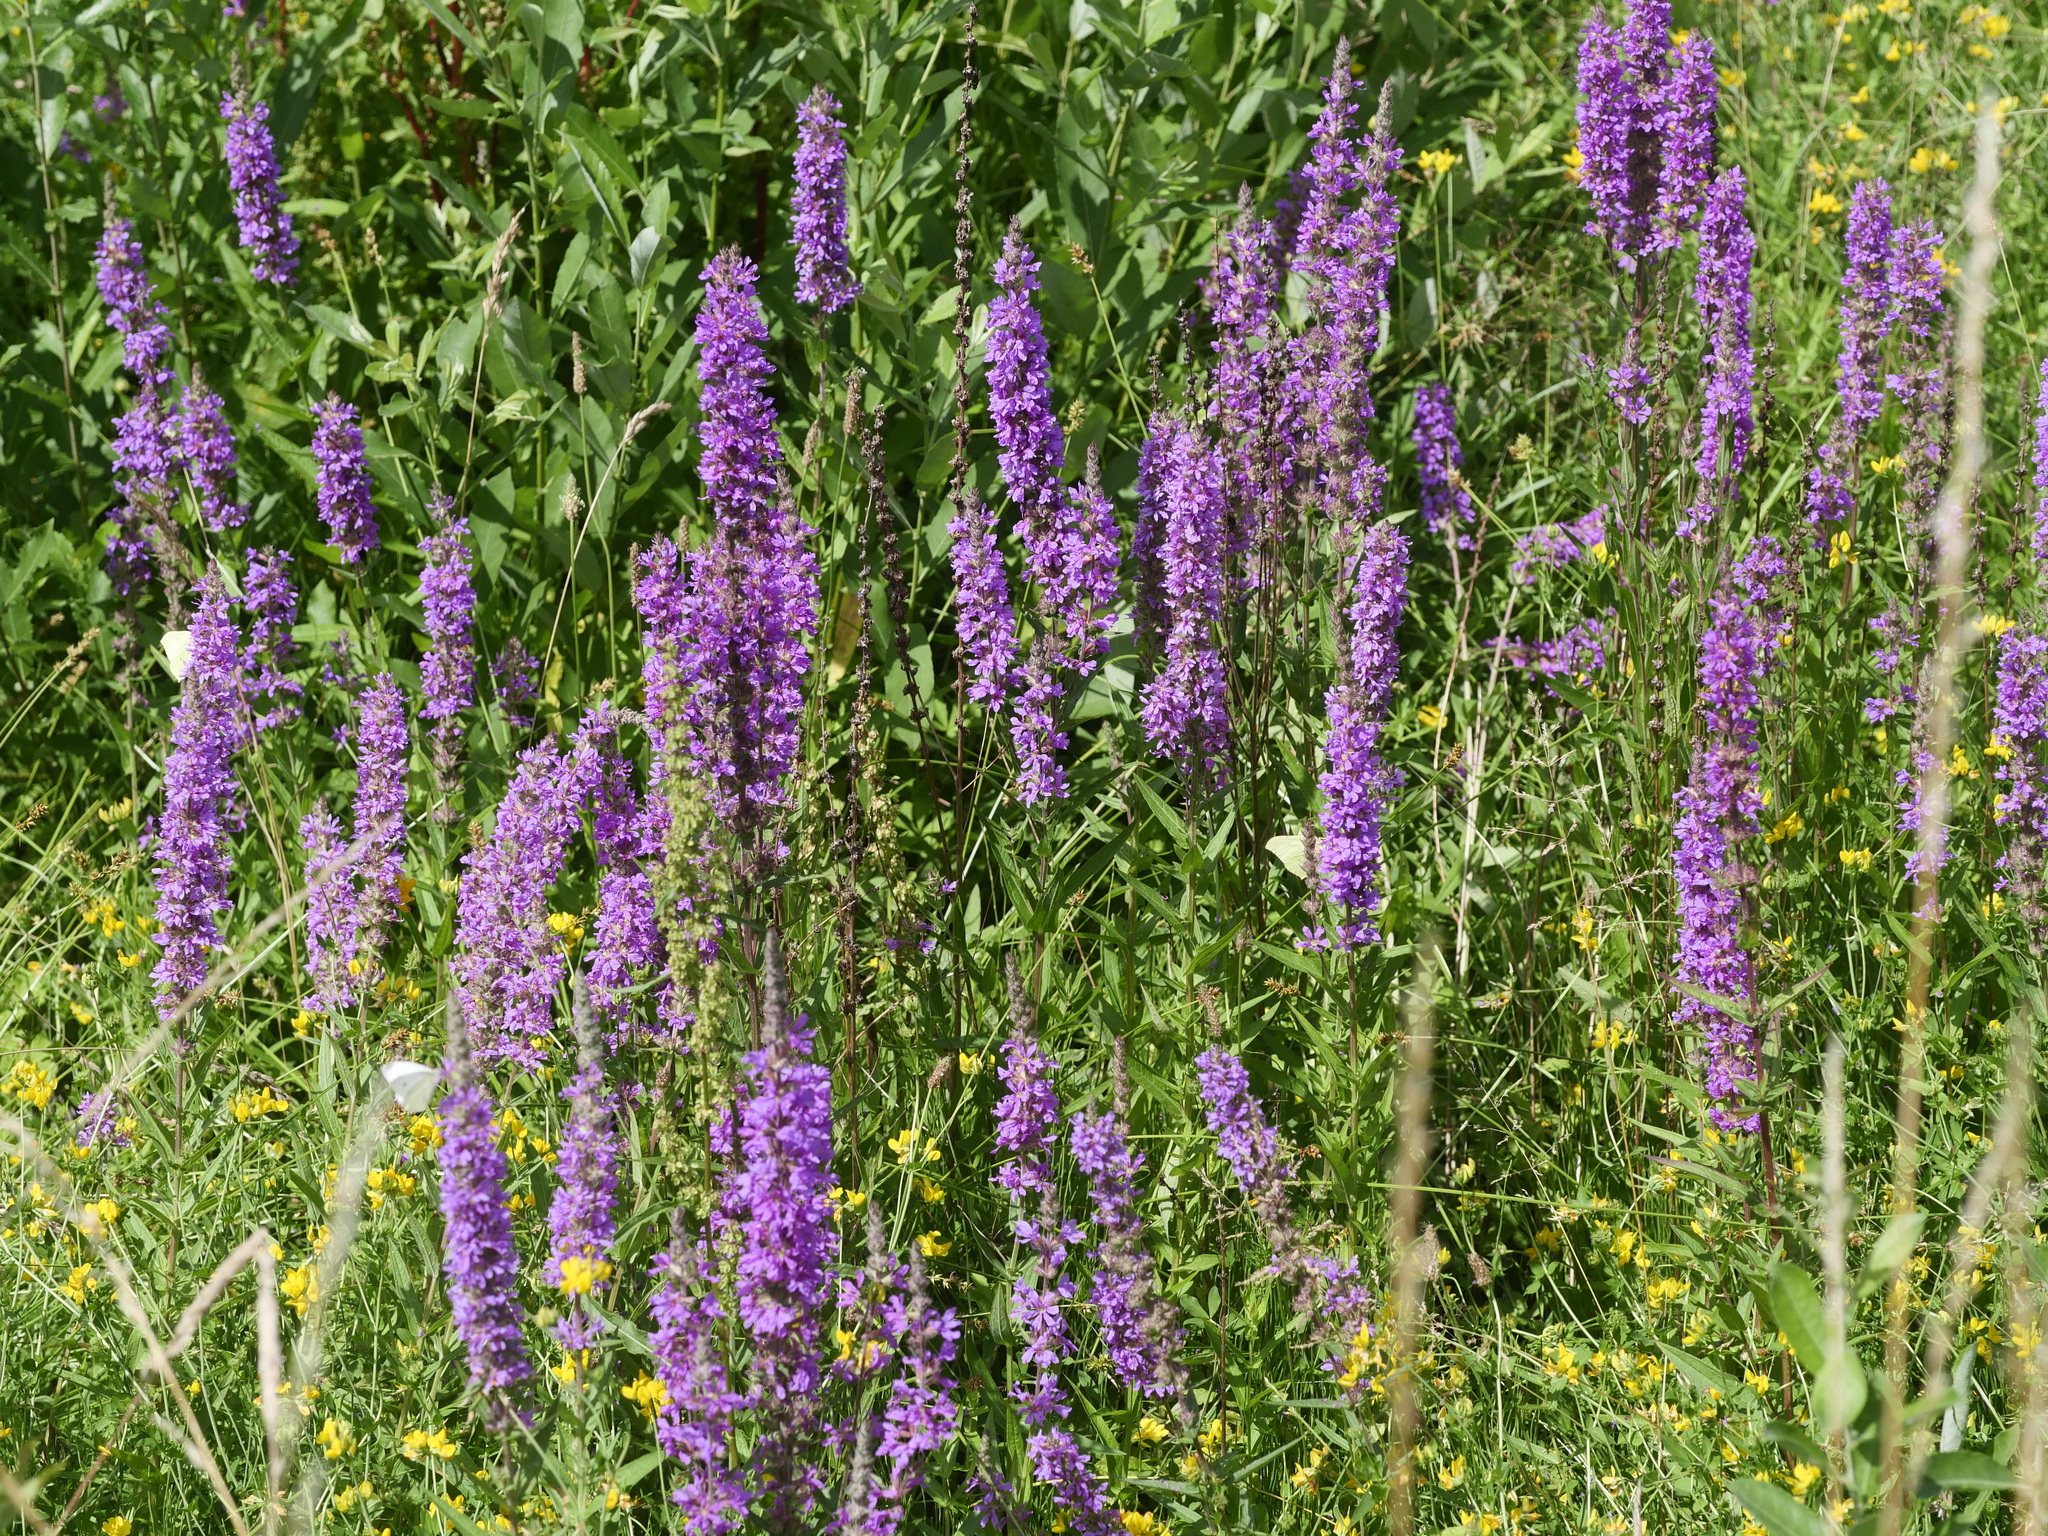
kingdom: Plantae
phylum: Tracheophyta
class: Magnoliopsida
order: Myrtales
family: Lythraceae
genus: Lythrum
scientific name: Lythrum salicaria
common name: Purple loosestrife
